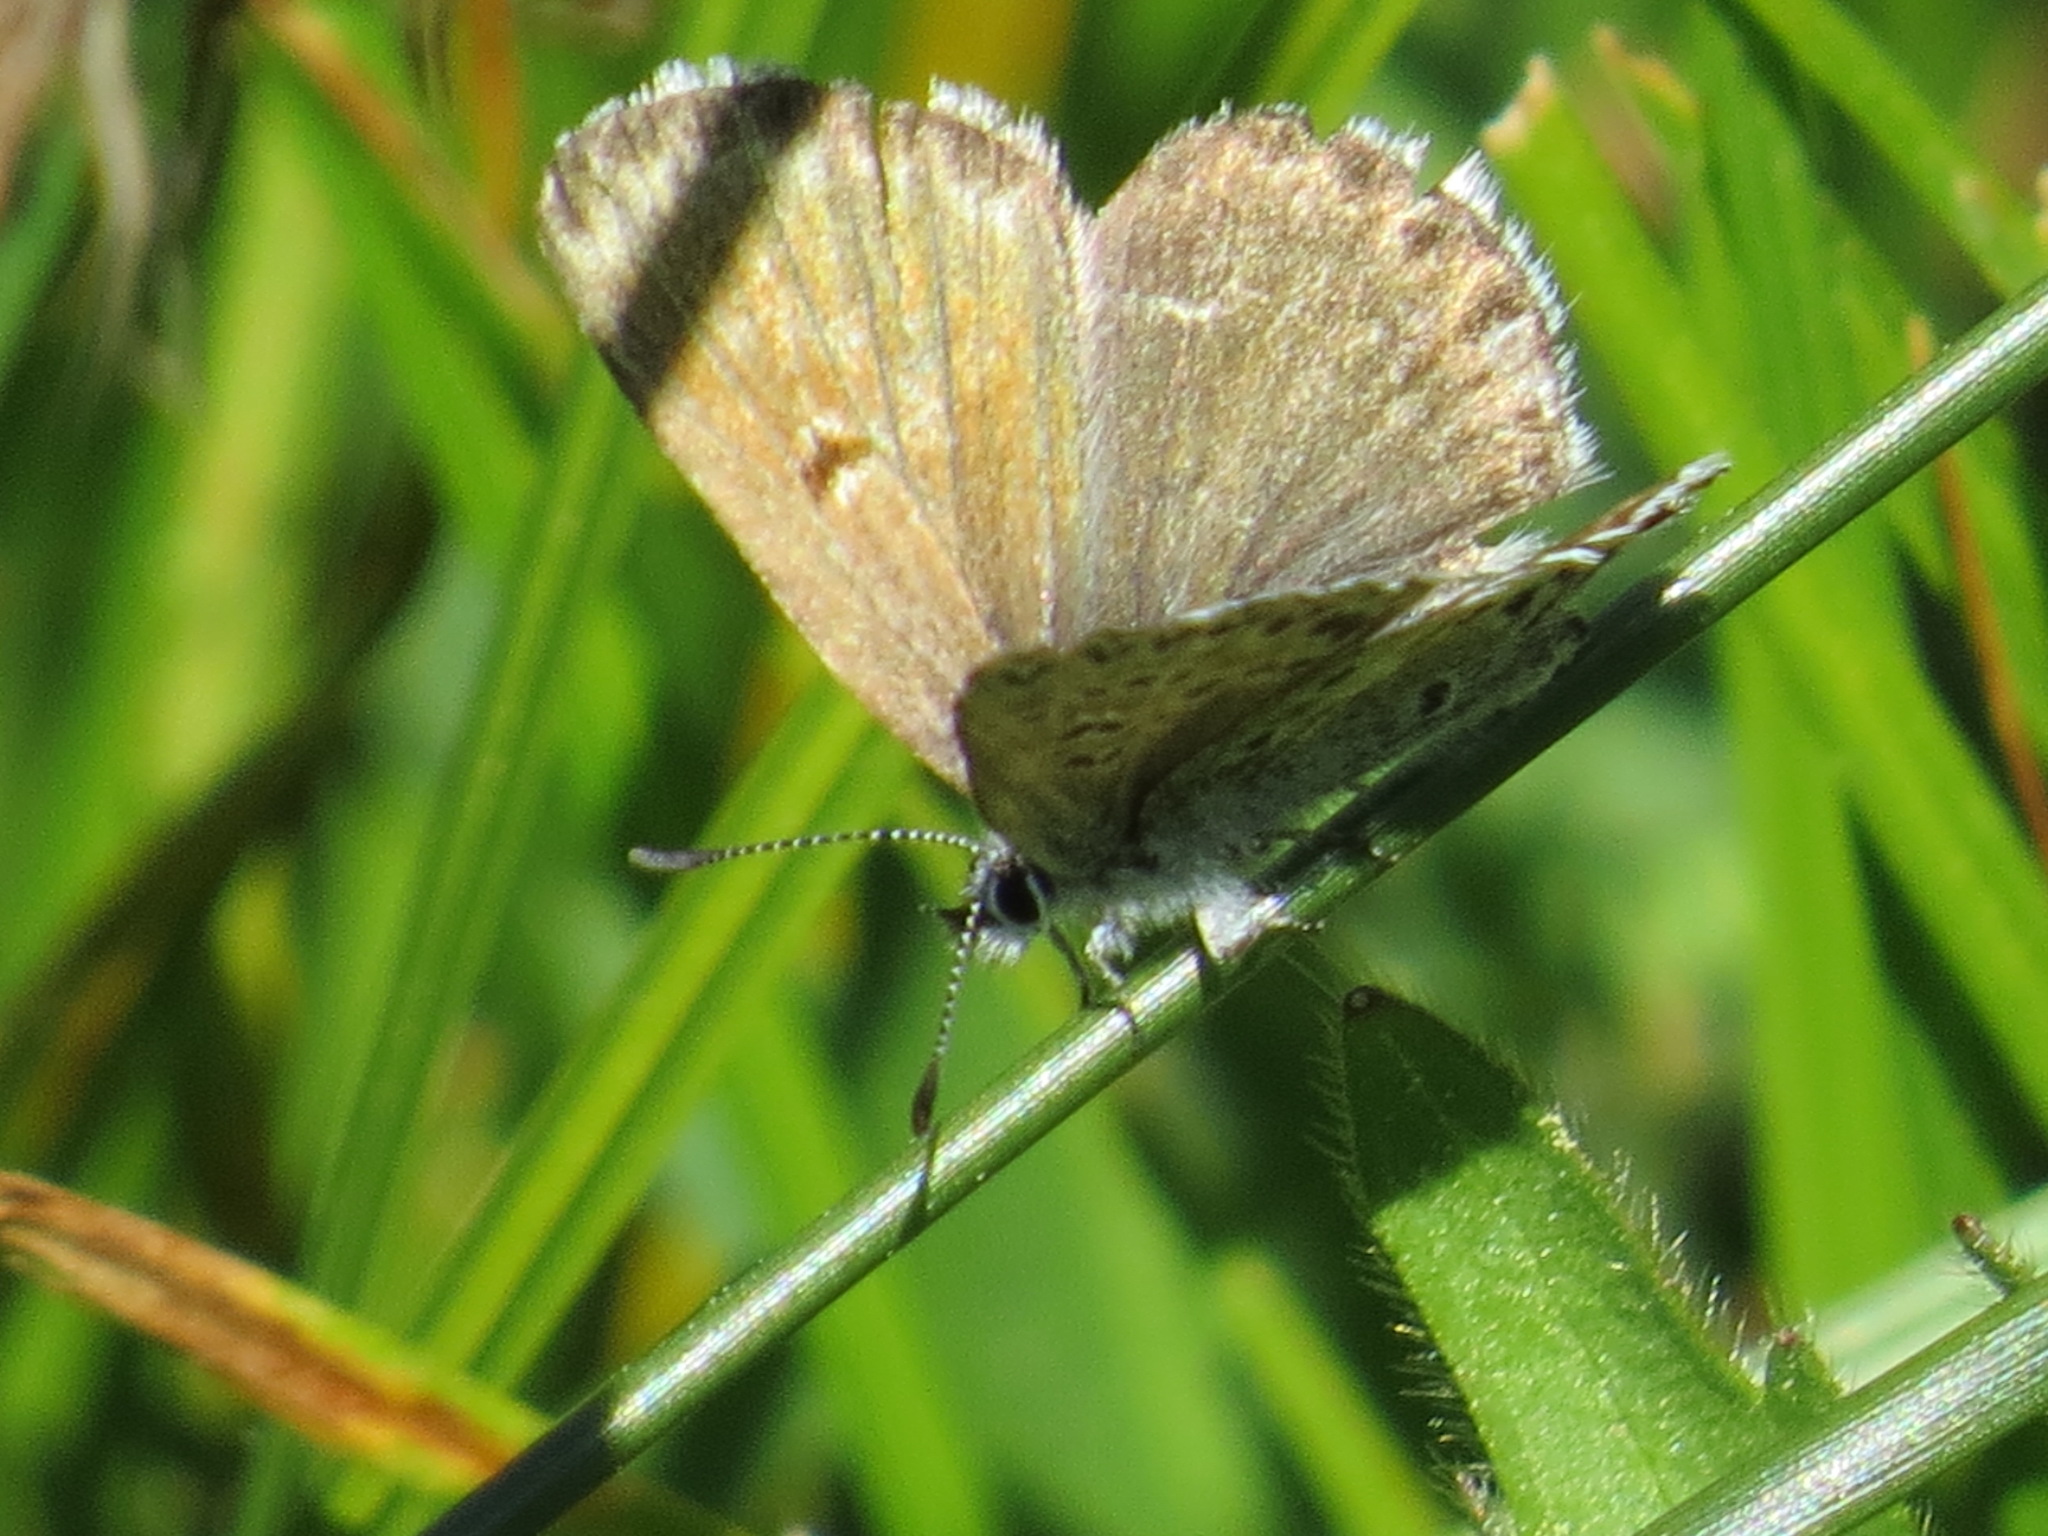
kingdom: Animalia
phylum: Arthropoda
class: Insecta
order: Lepidoptera
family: Lycaenidae
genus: Agriades
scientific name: Agriades podarce
